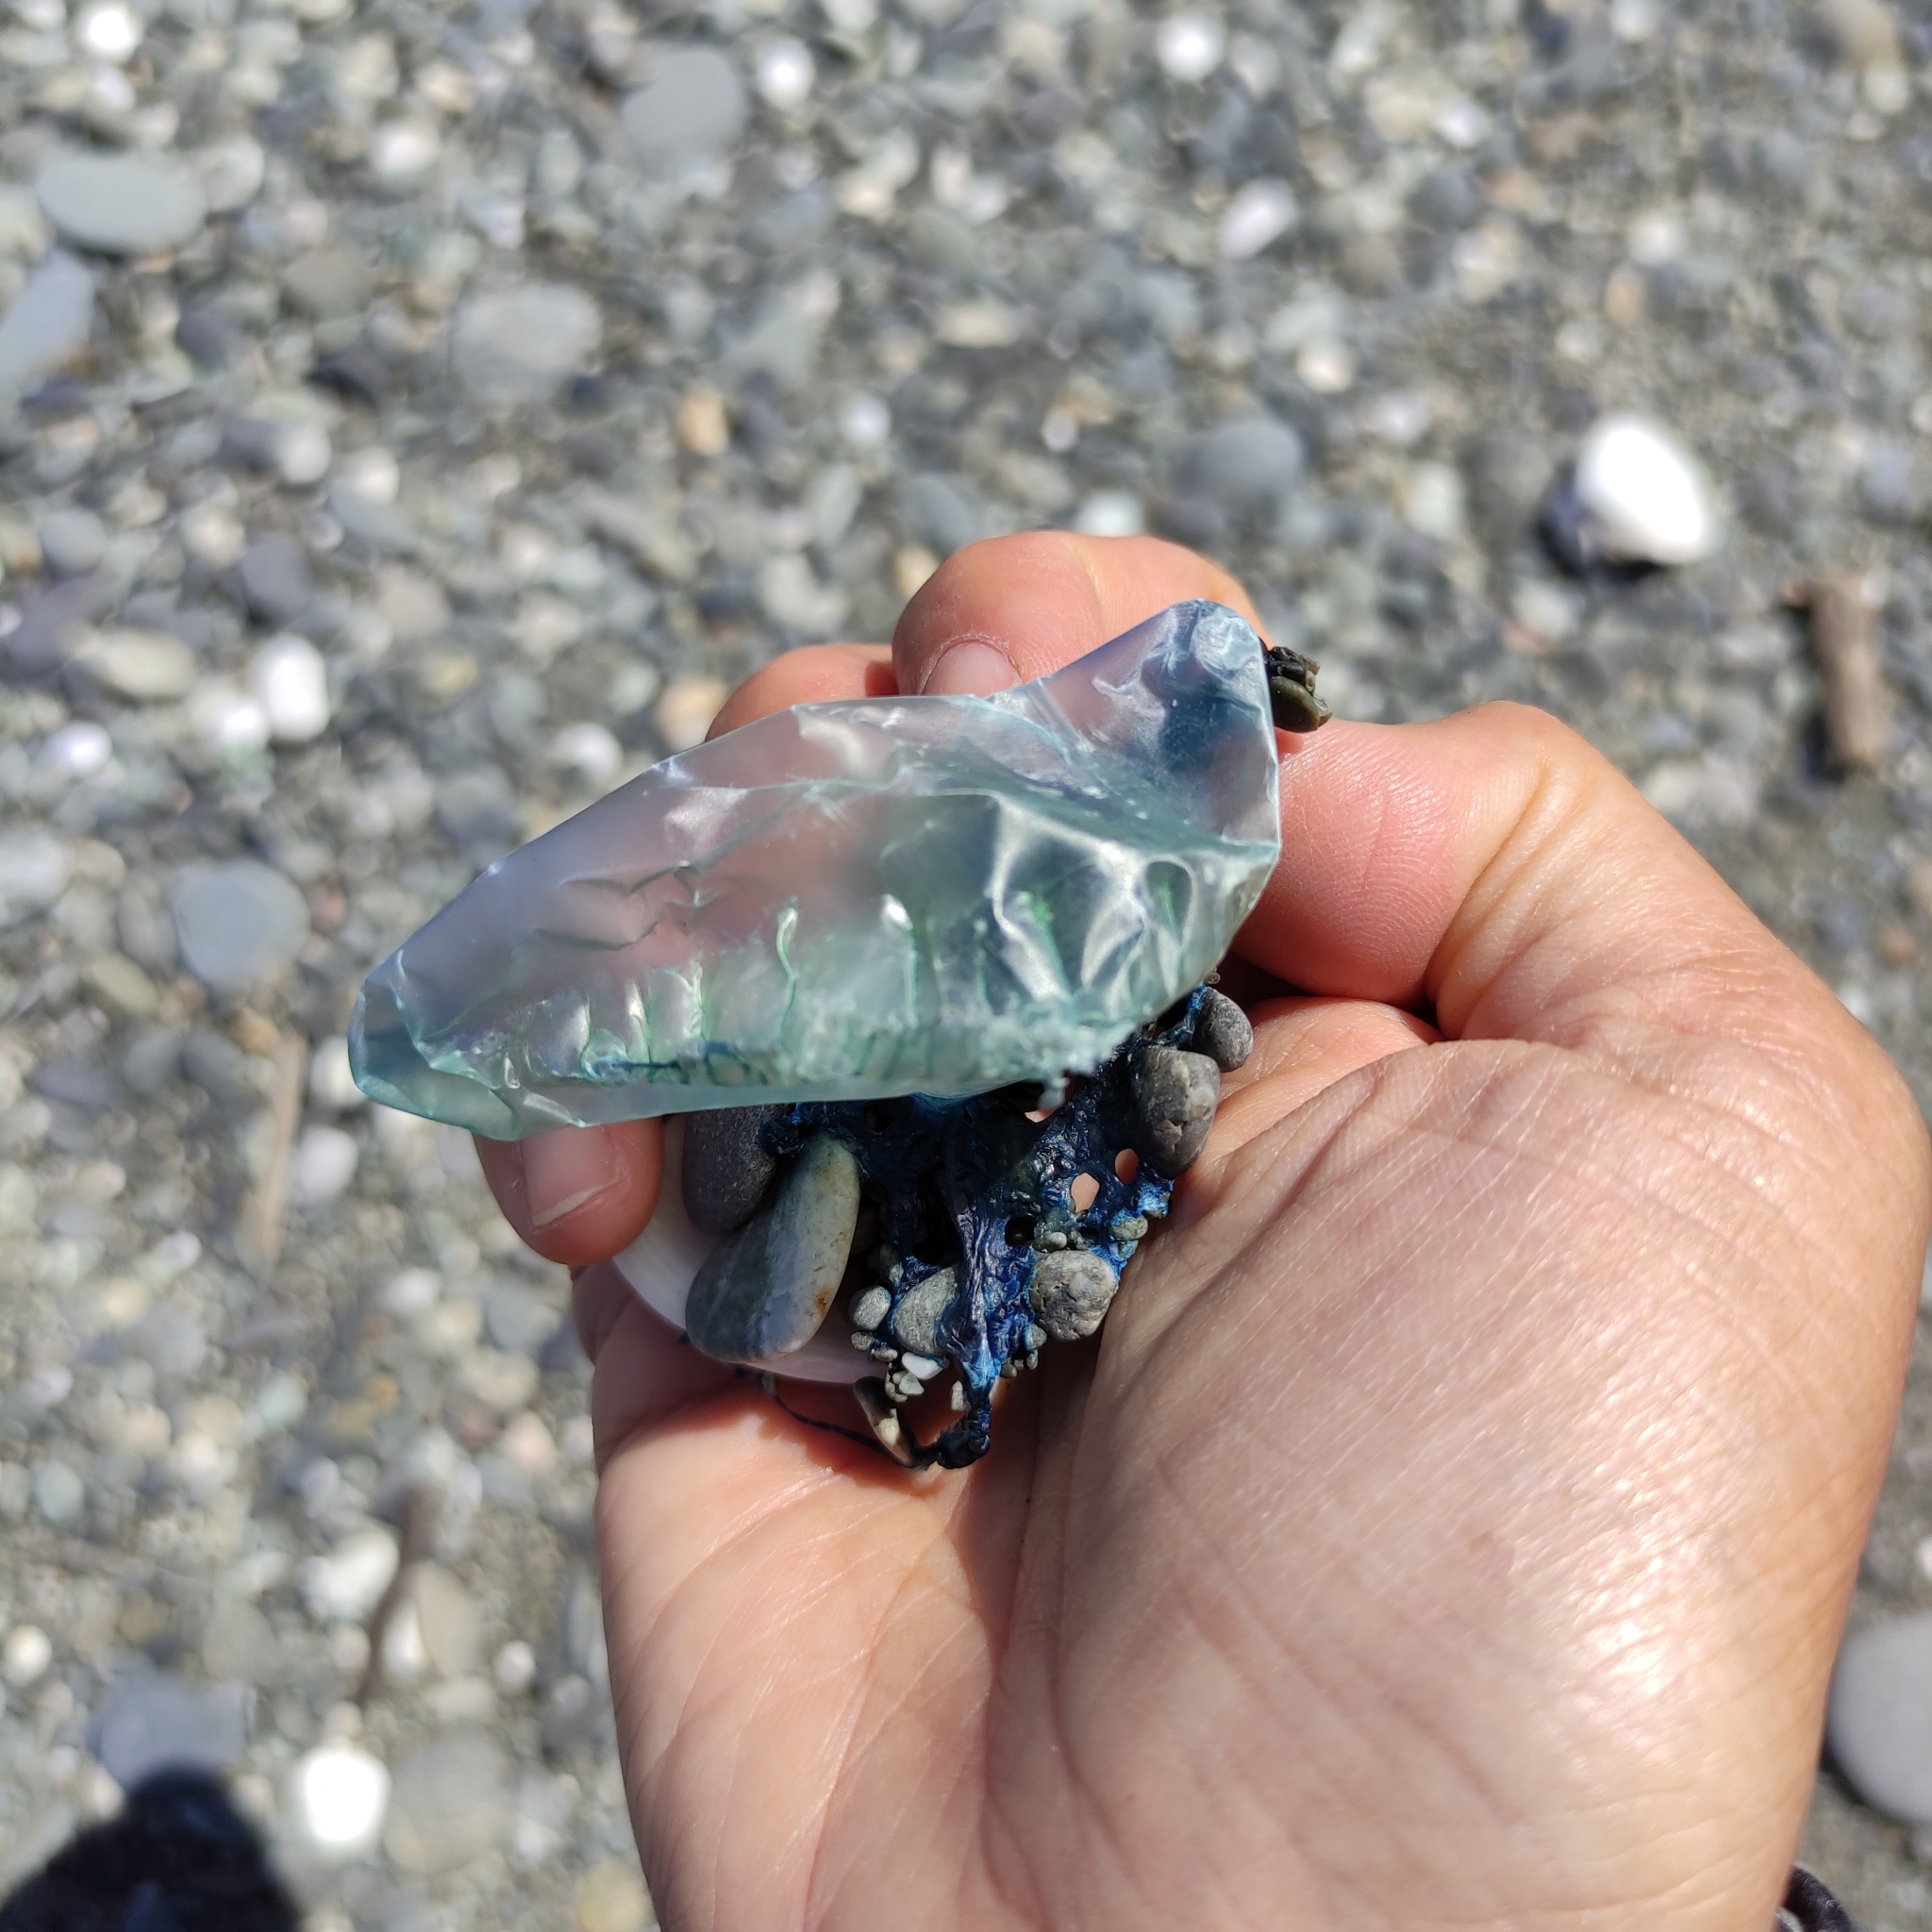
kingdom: Animalia
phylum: Cnidaria
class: Hydrozoa
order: Siphonophorae
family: Physaliidae
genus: Physalia
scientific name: Physalia physalis
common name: Portuguese man-of-war
